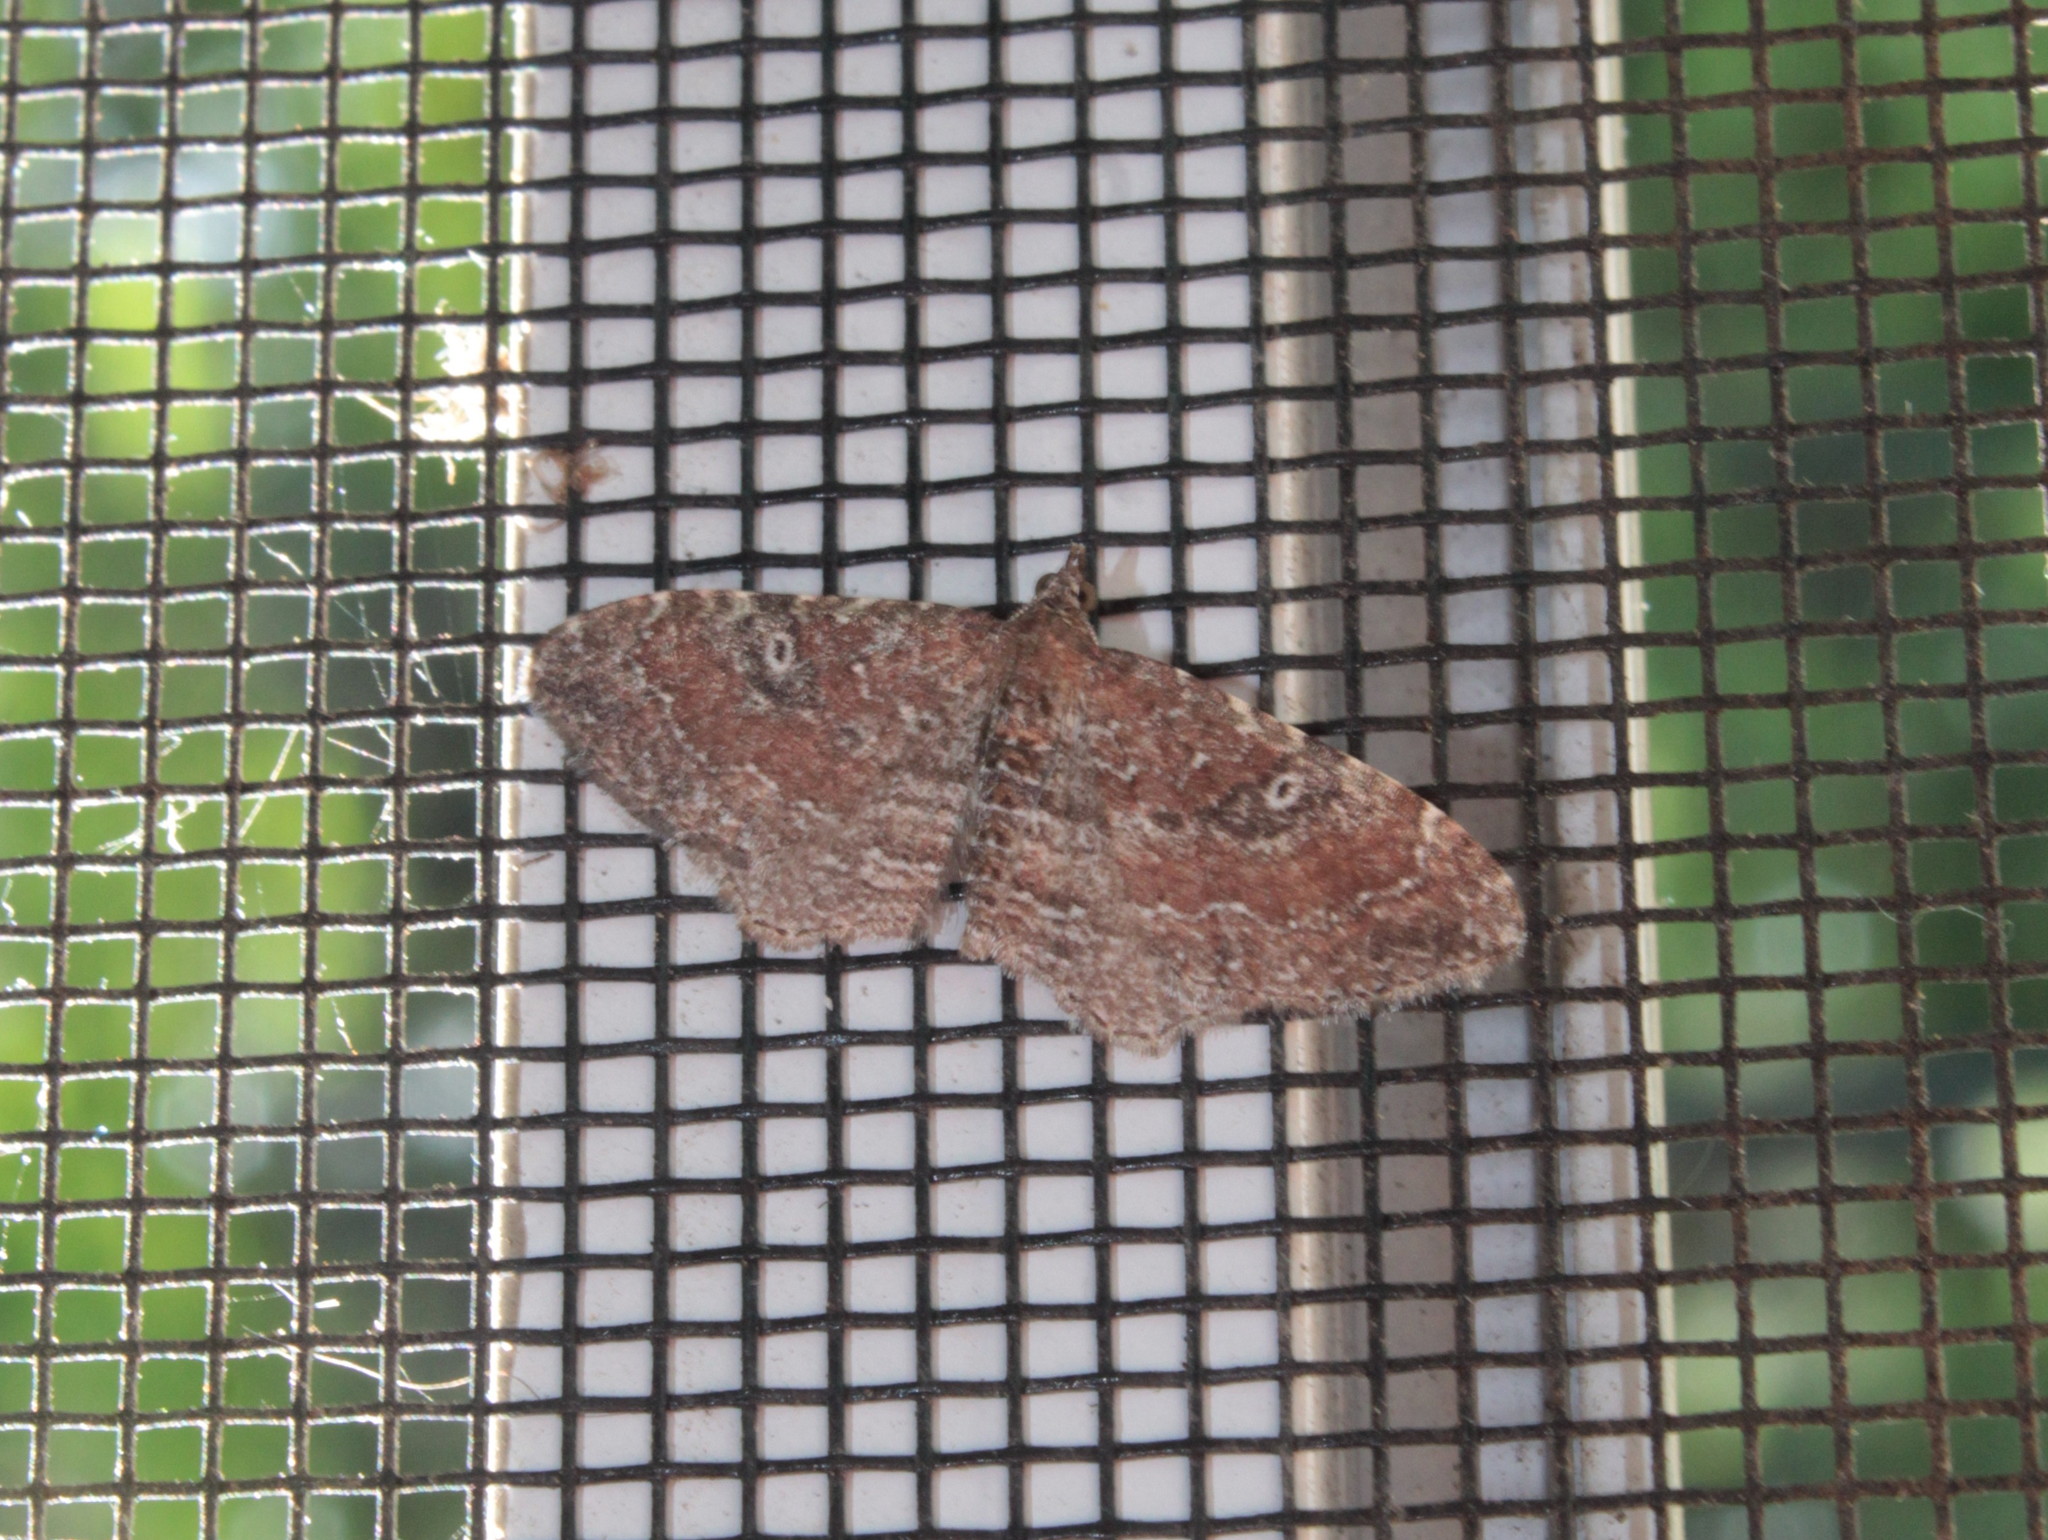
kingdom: Animalia
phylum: Arthropoda
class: Insecta
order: Lepidoptera
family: Geometridae
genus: Orthonama
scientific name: Orthonama obstipata
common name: The gem
